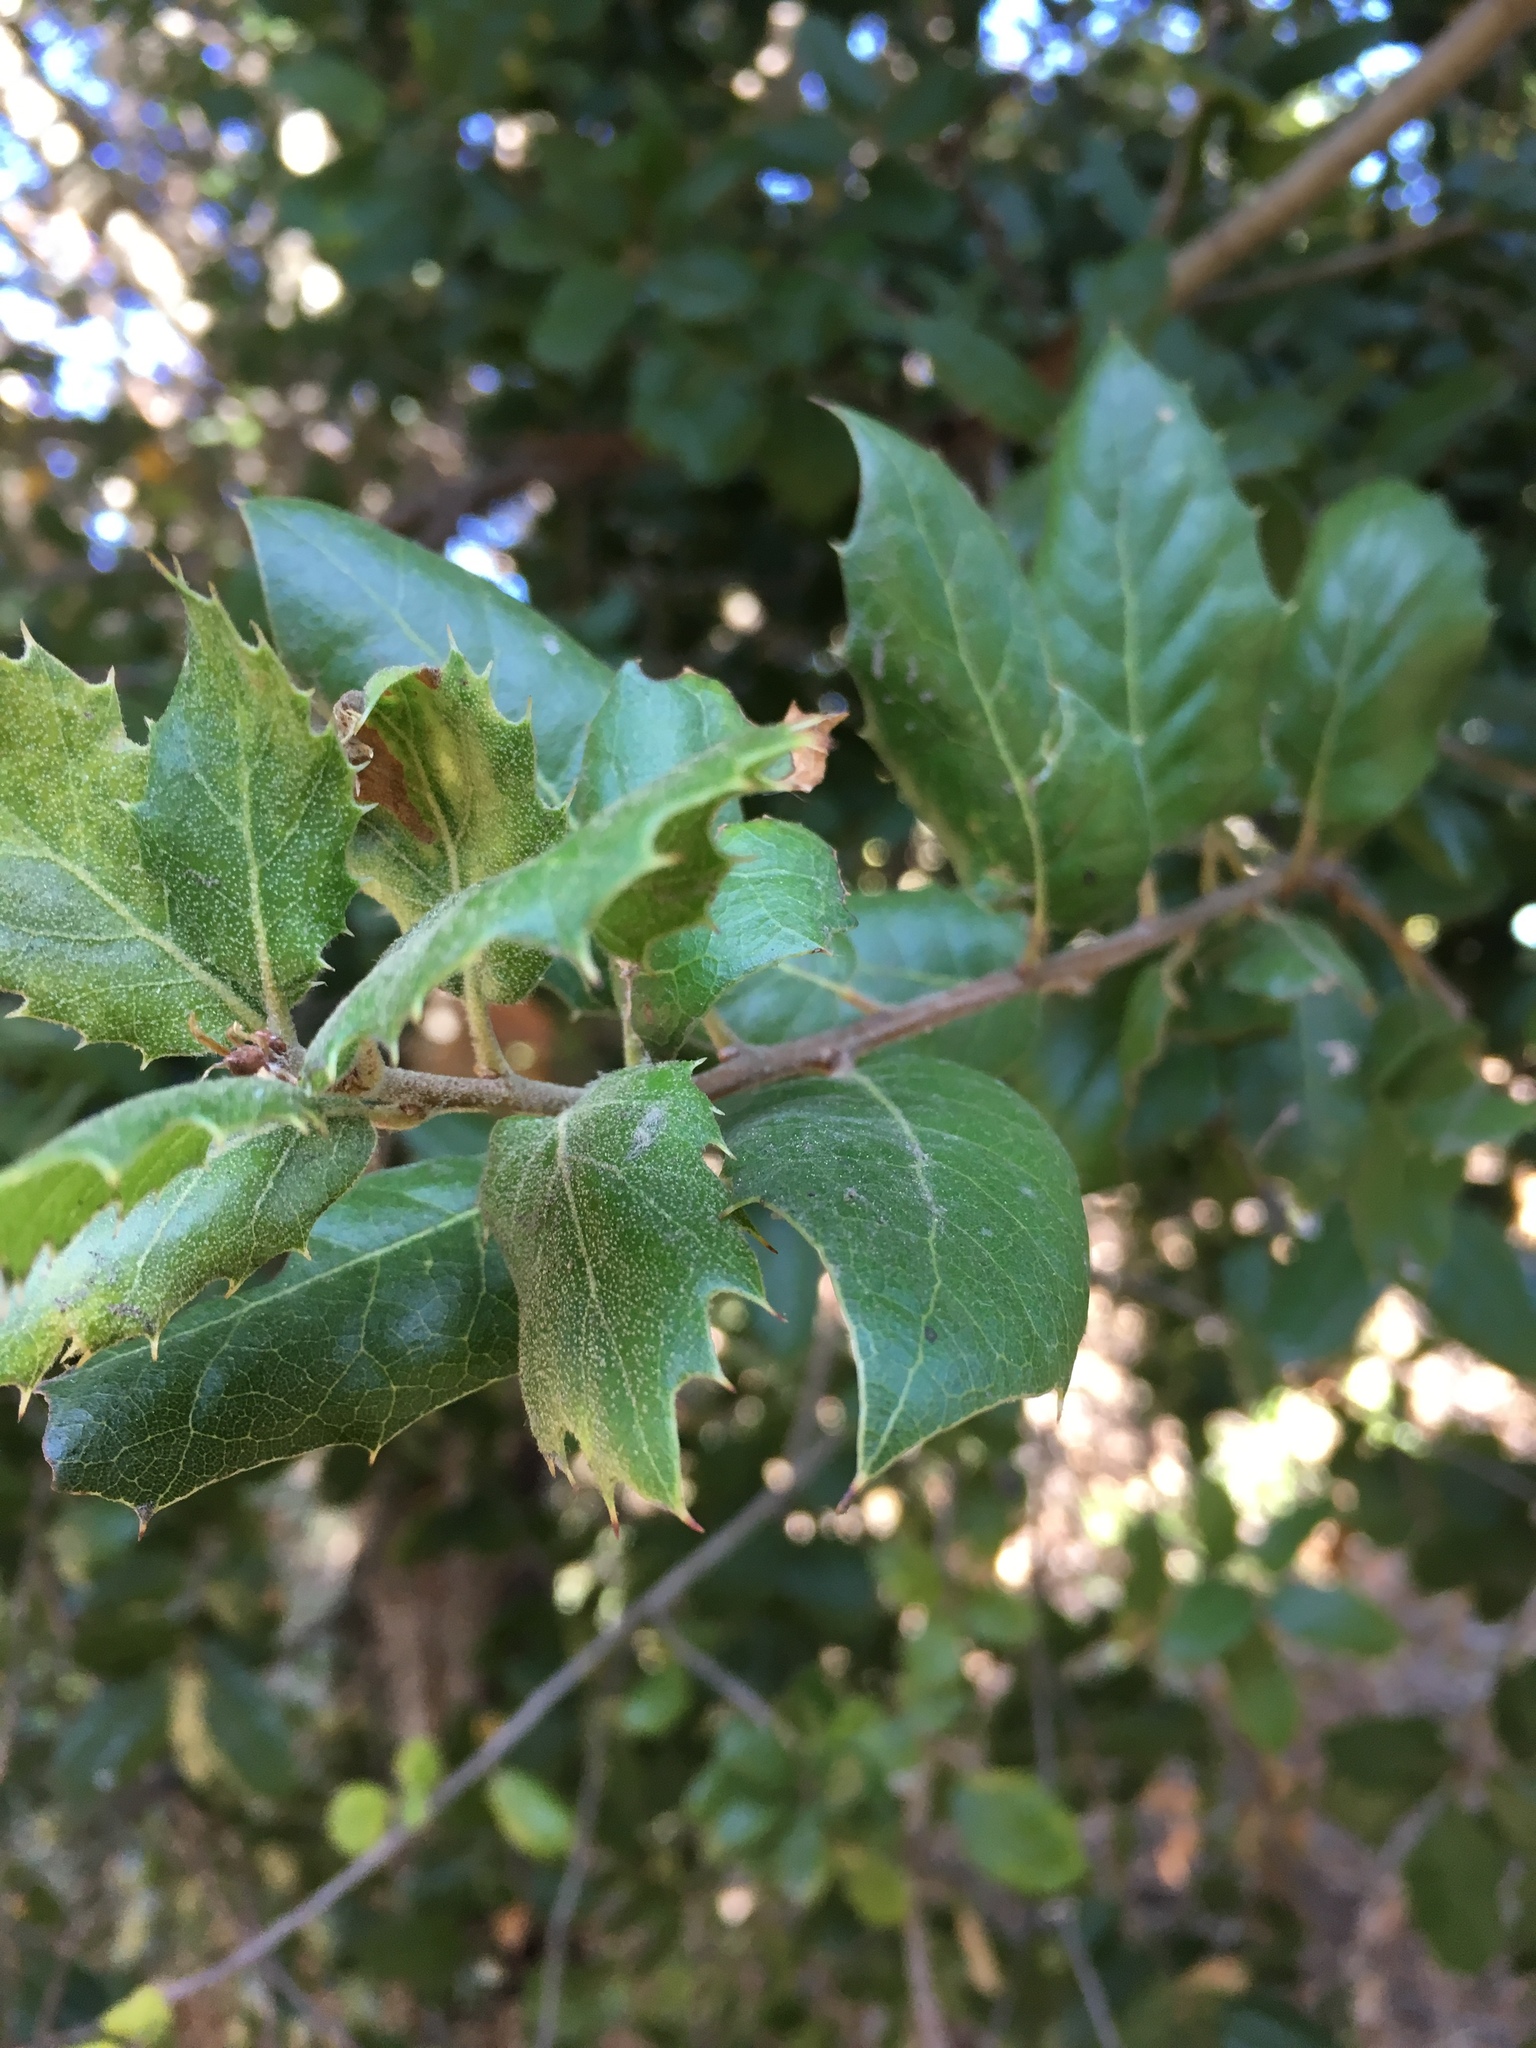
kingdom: Plantae
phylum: Tracheophyta
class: Magnoliopsida
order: Fagales
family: Fagaceae
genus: Quercus
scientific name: Quercus agrifolia
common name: California live oak
